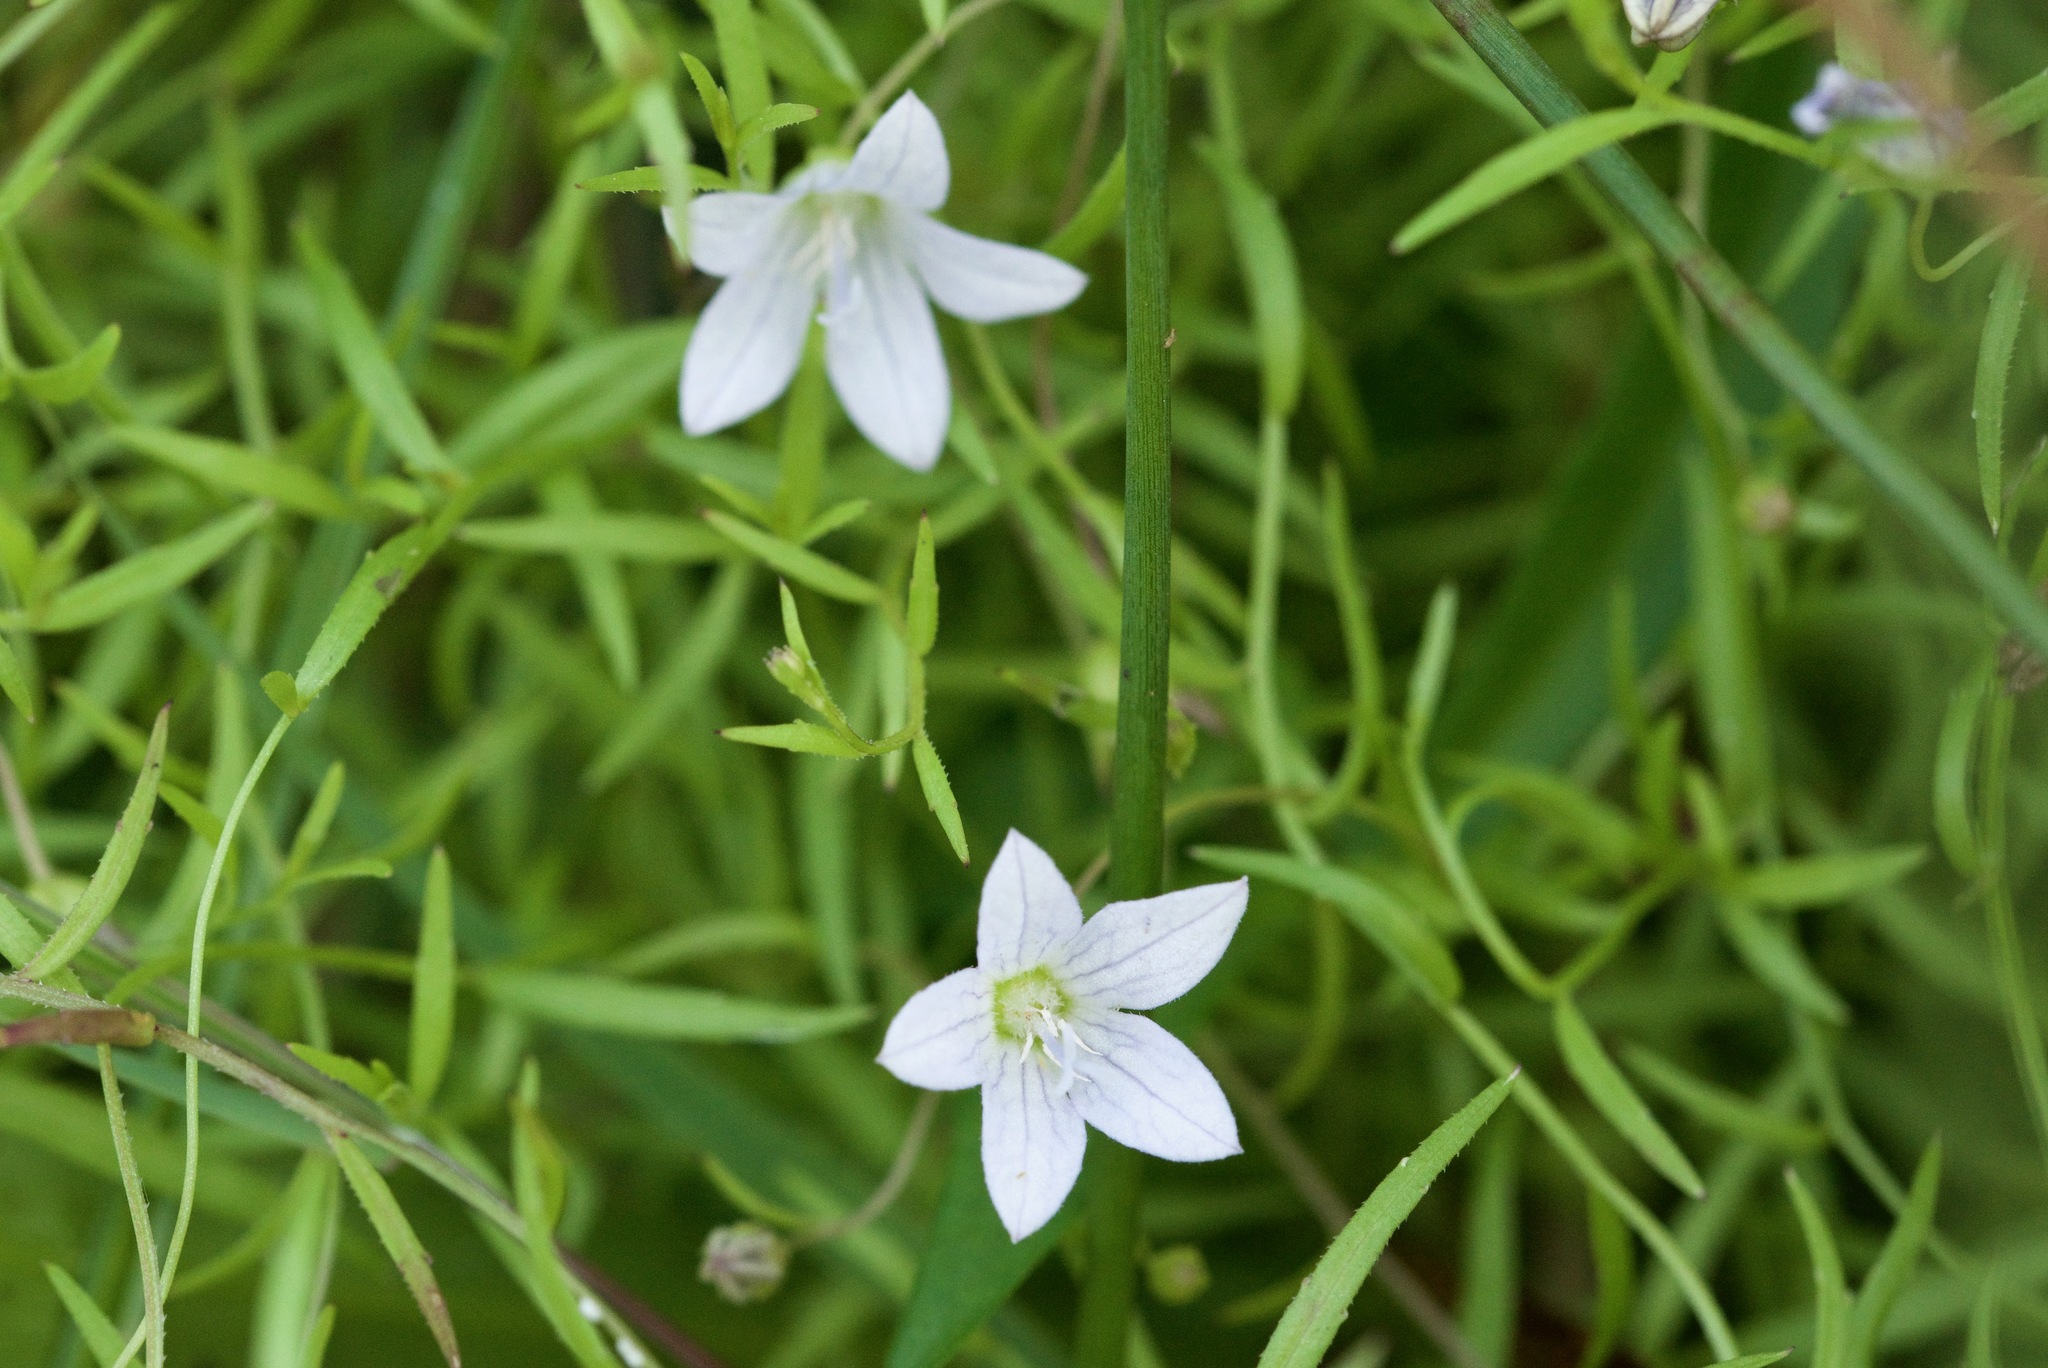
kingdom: Plantae
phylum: Tracheophyta
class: Magnoliopsida
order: Asterales
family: Campanulaceae
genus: Palustricodon
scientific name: Palustricodon aparinoides
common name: Bedstraw bellflower
